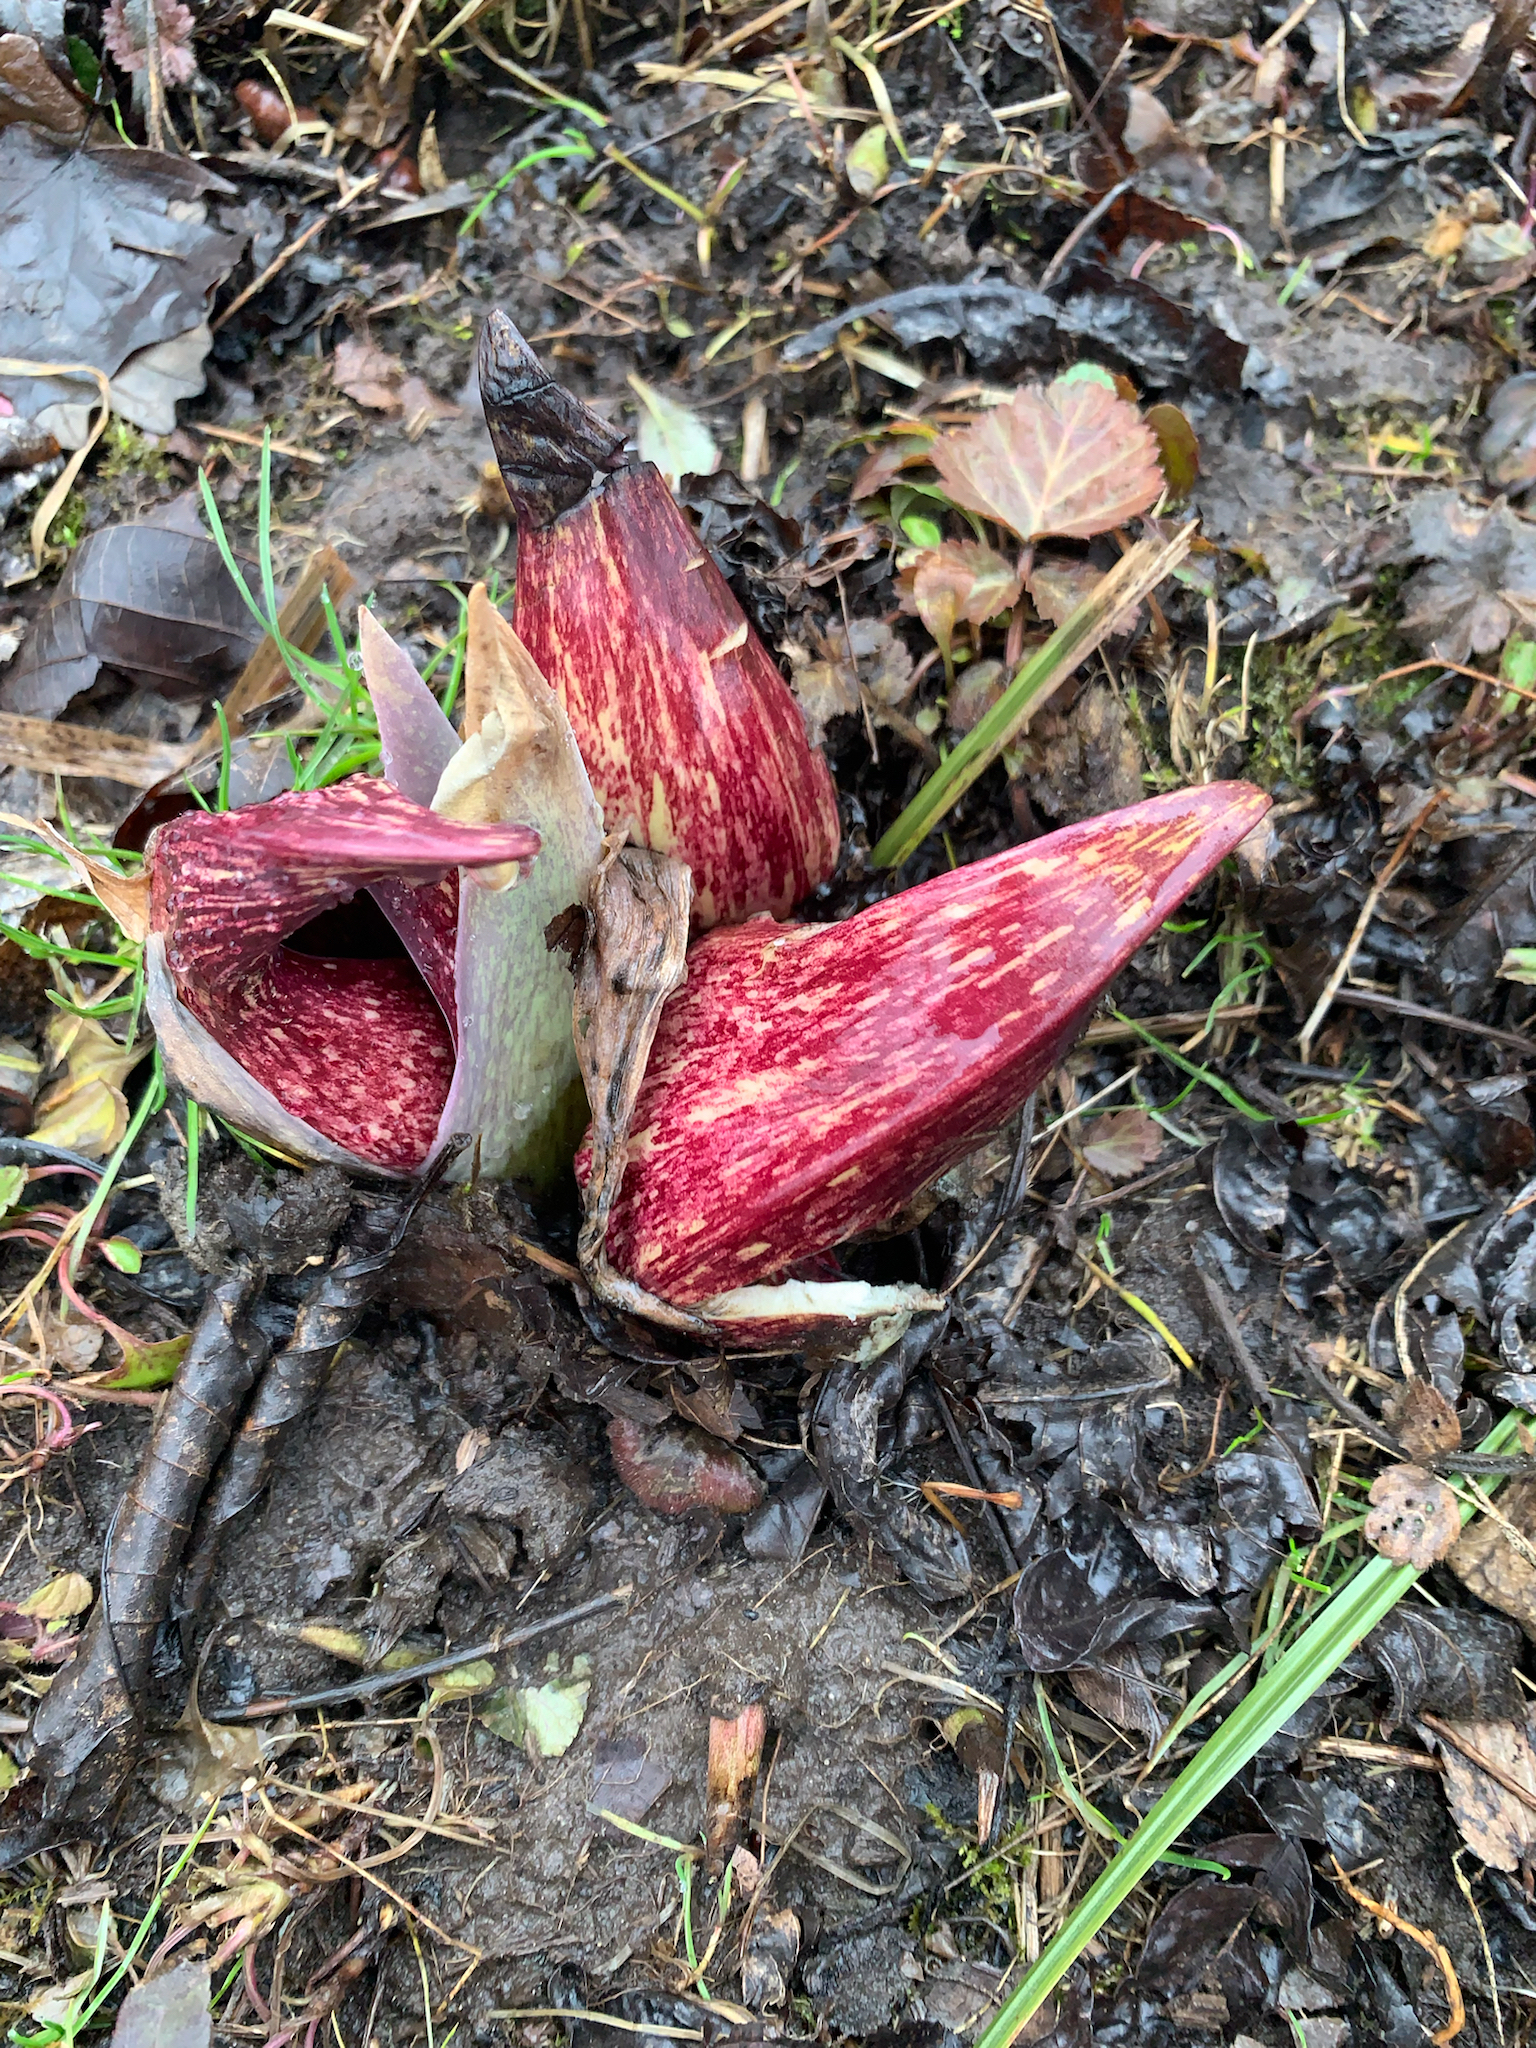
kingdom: Plantae
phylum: Tracheophyta
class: Liliopsida
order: Alismatales
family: Araceae
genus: Symplocarpus
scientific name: Symplocarpus foetidus
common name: Eastern skunk cabbage
